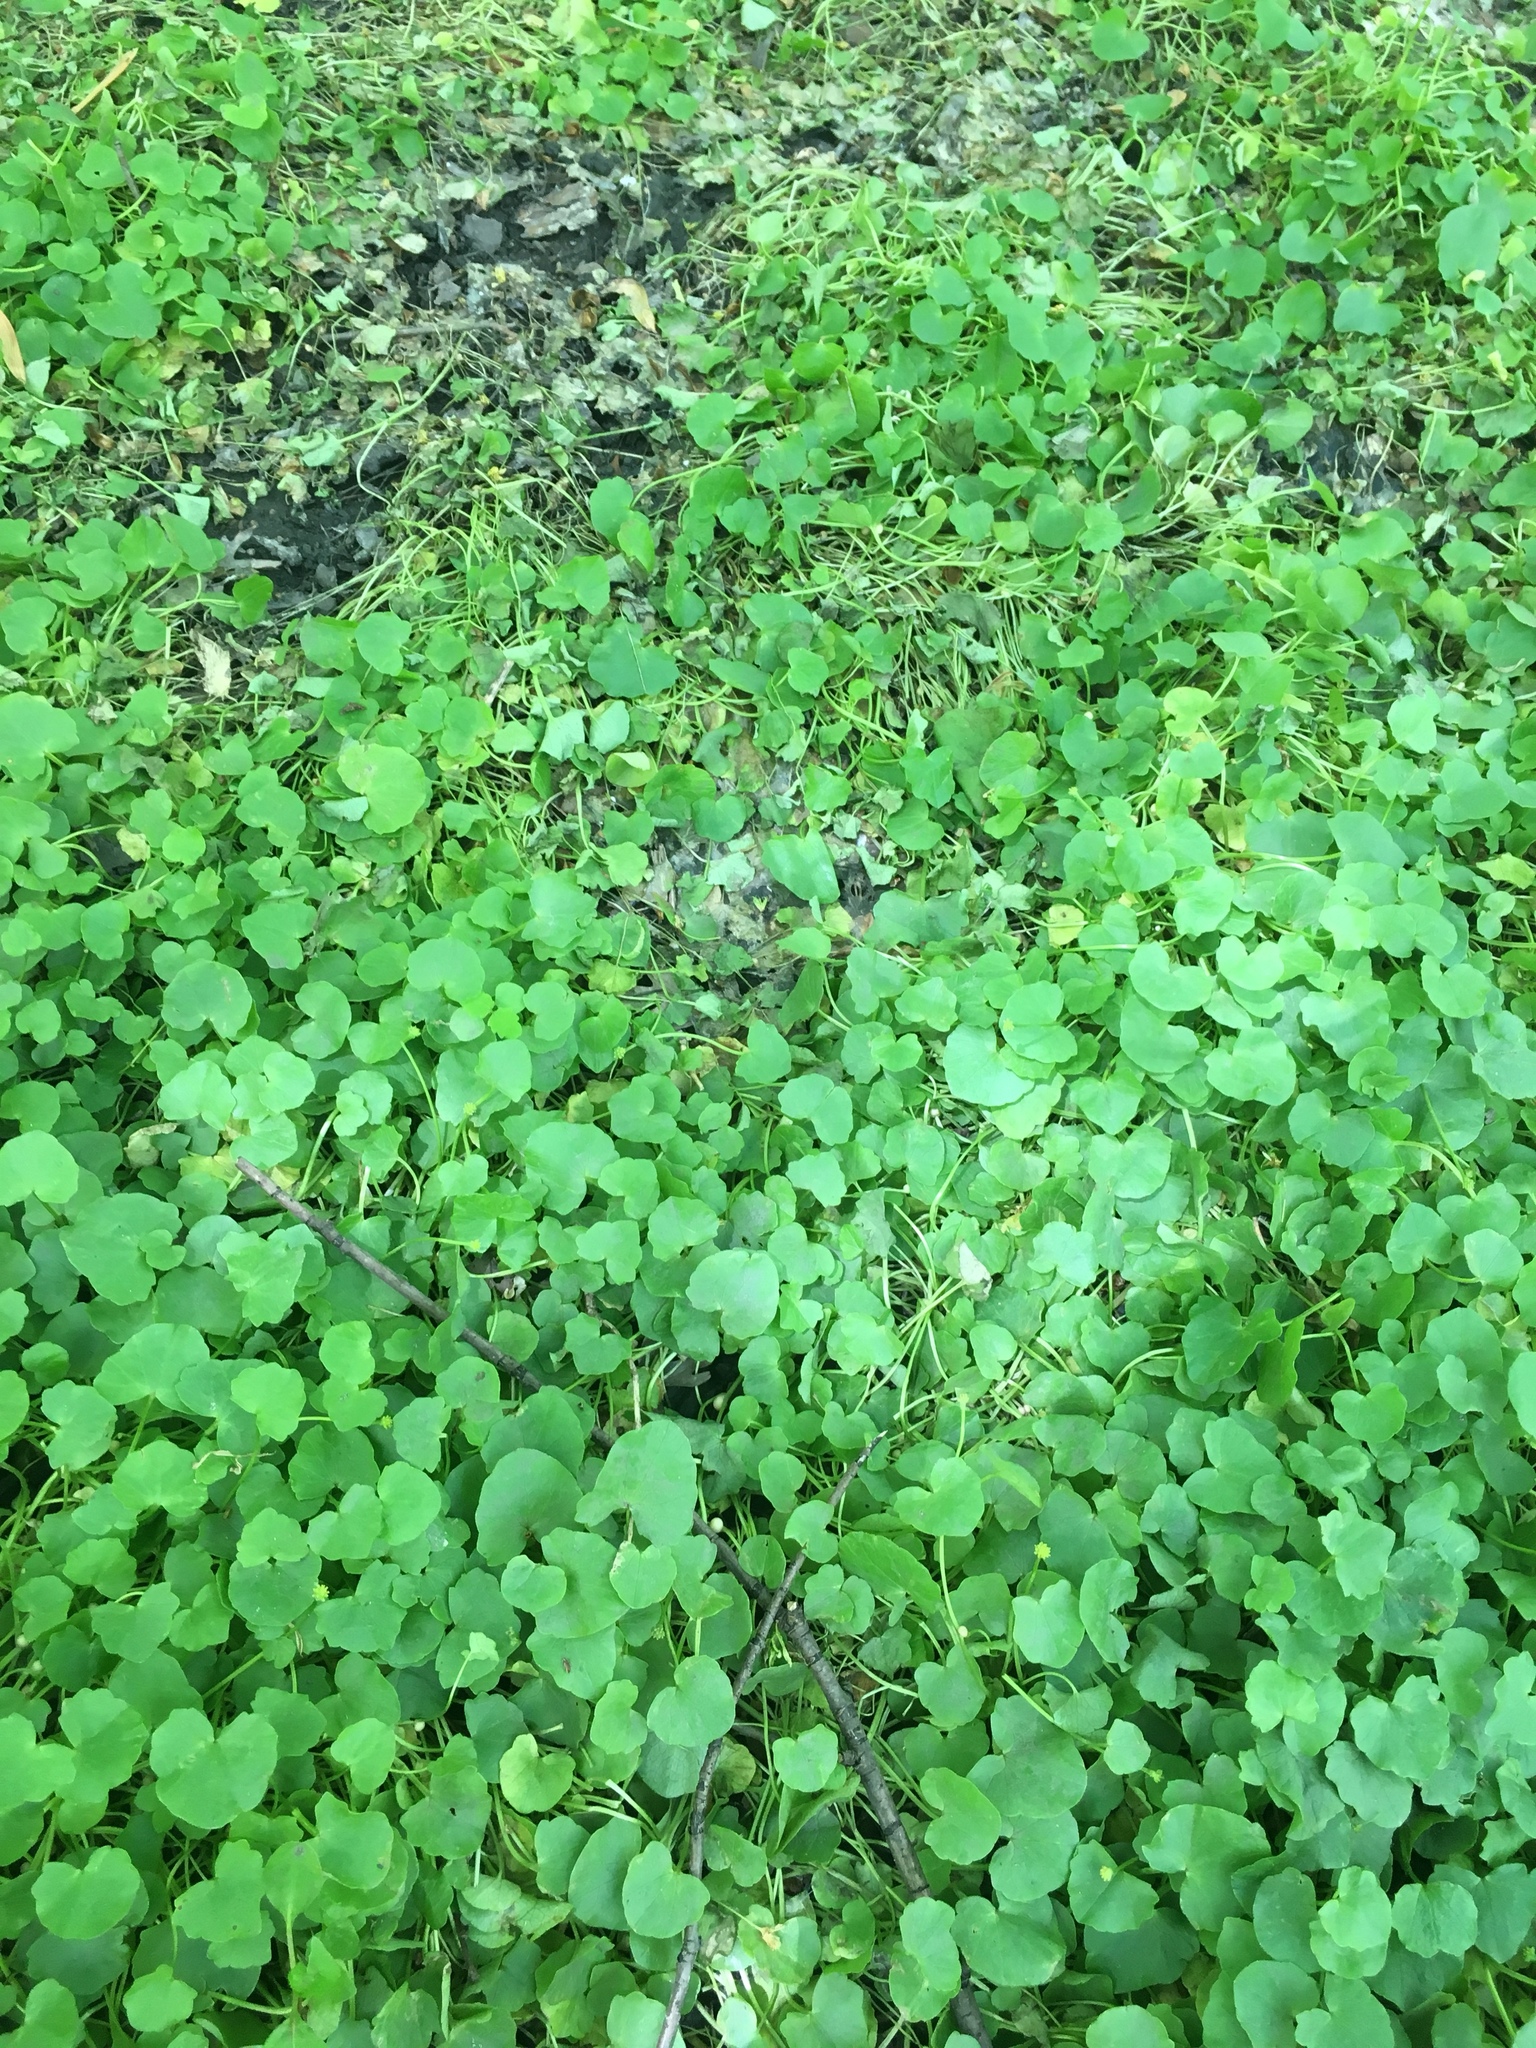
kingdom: Plantae
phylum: Tracheophyta
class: Magnoliopsida
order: Ranunculales
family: Ranunculaceae
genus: Ficaria
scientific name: Ficaria verna
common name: Lesser celandine
